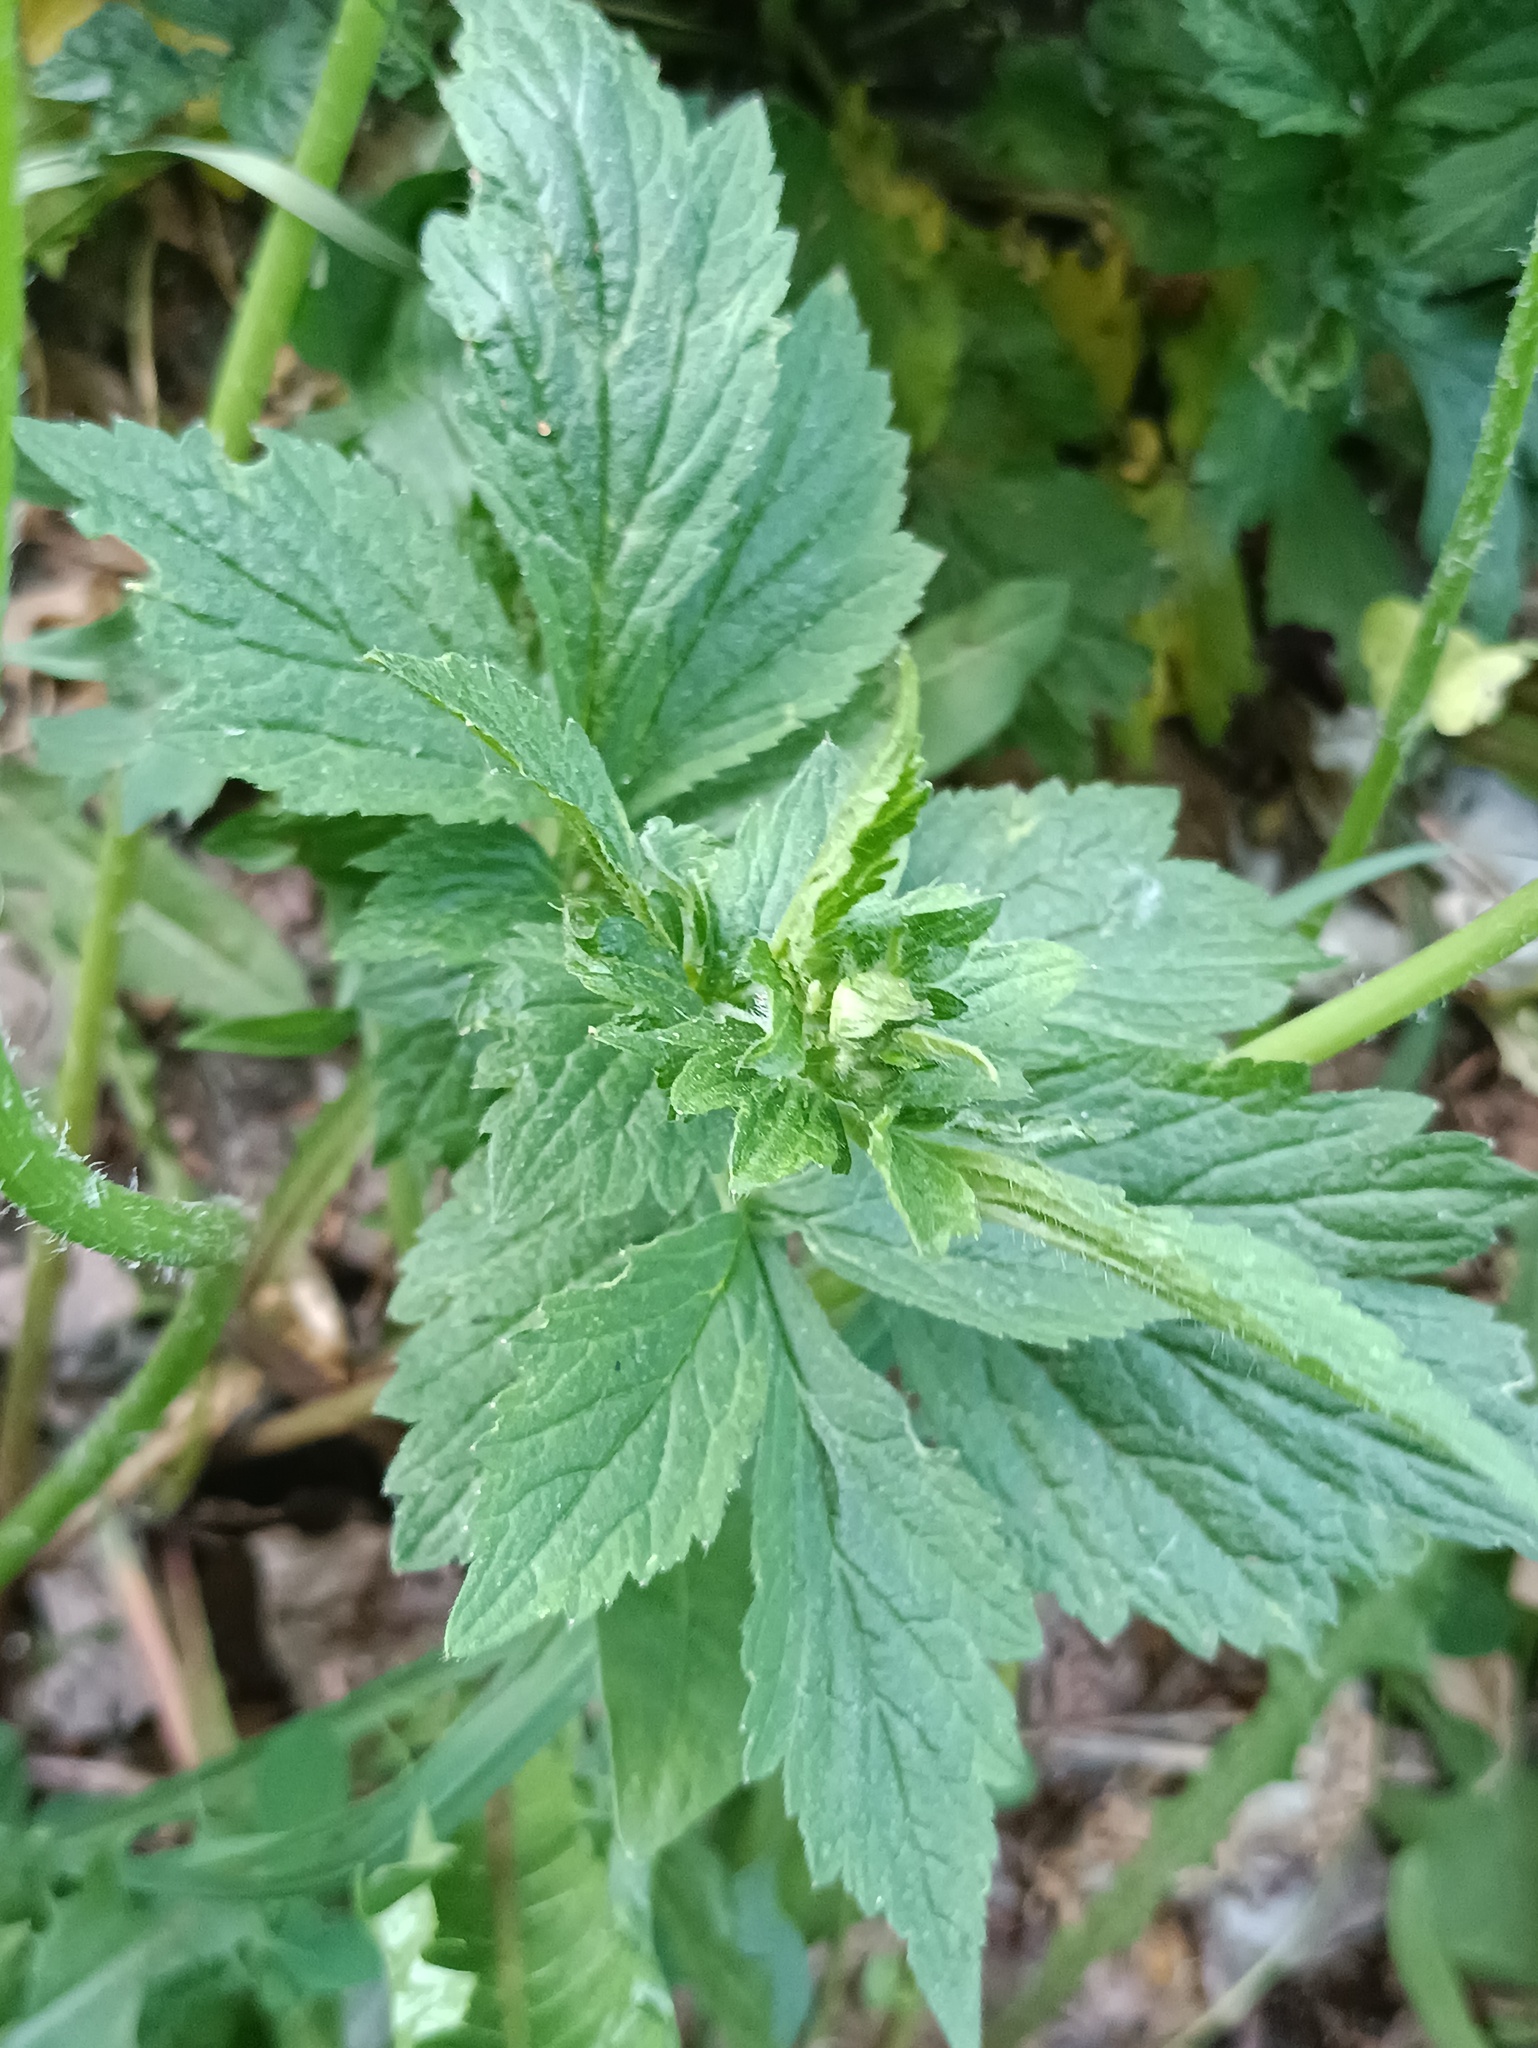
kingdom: Plantae
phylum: Tracheophyta
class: Magnoliopsida
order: Rosales
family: Rosaceae
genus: Geum
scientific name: Geum
